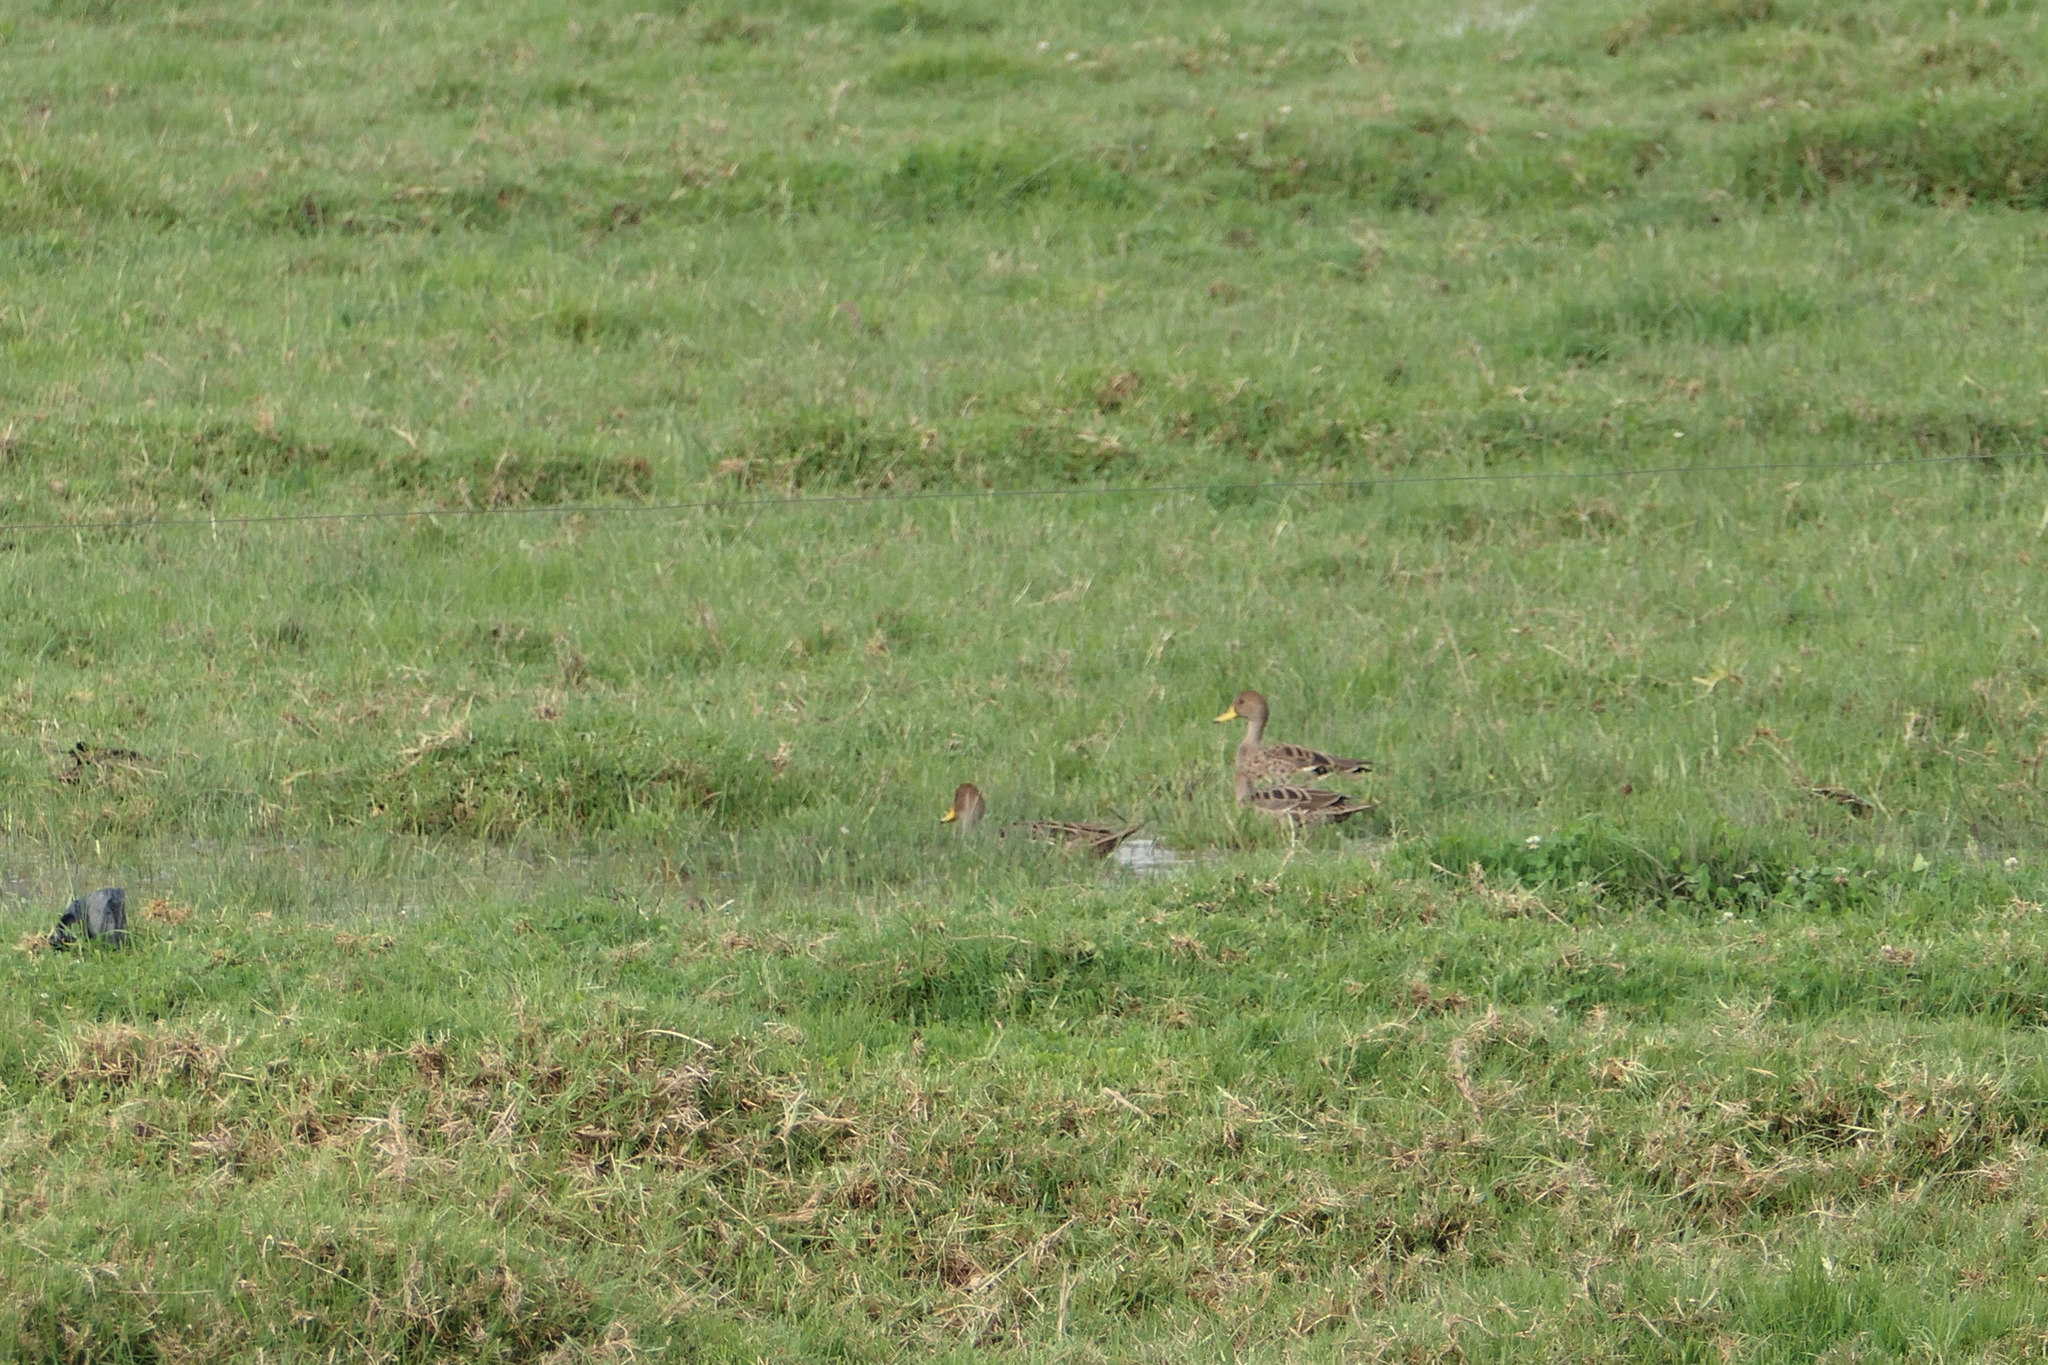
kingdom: Animalia
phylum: Chordata
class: Aves
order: Anseriformes
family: Anatidae
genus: Anas
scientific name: Anas georgica
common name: Yellow-billed pintail
